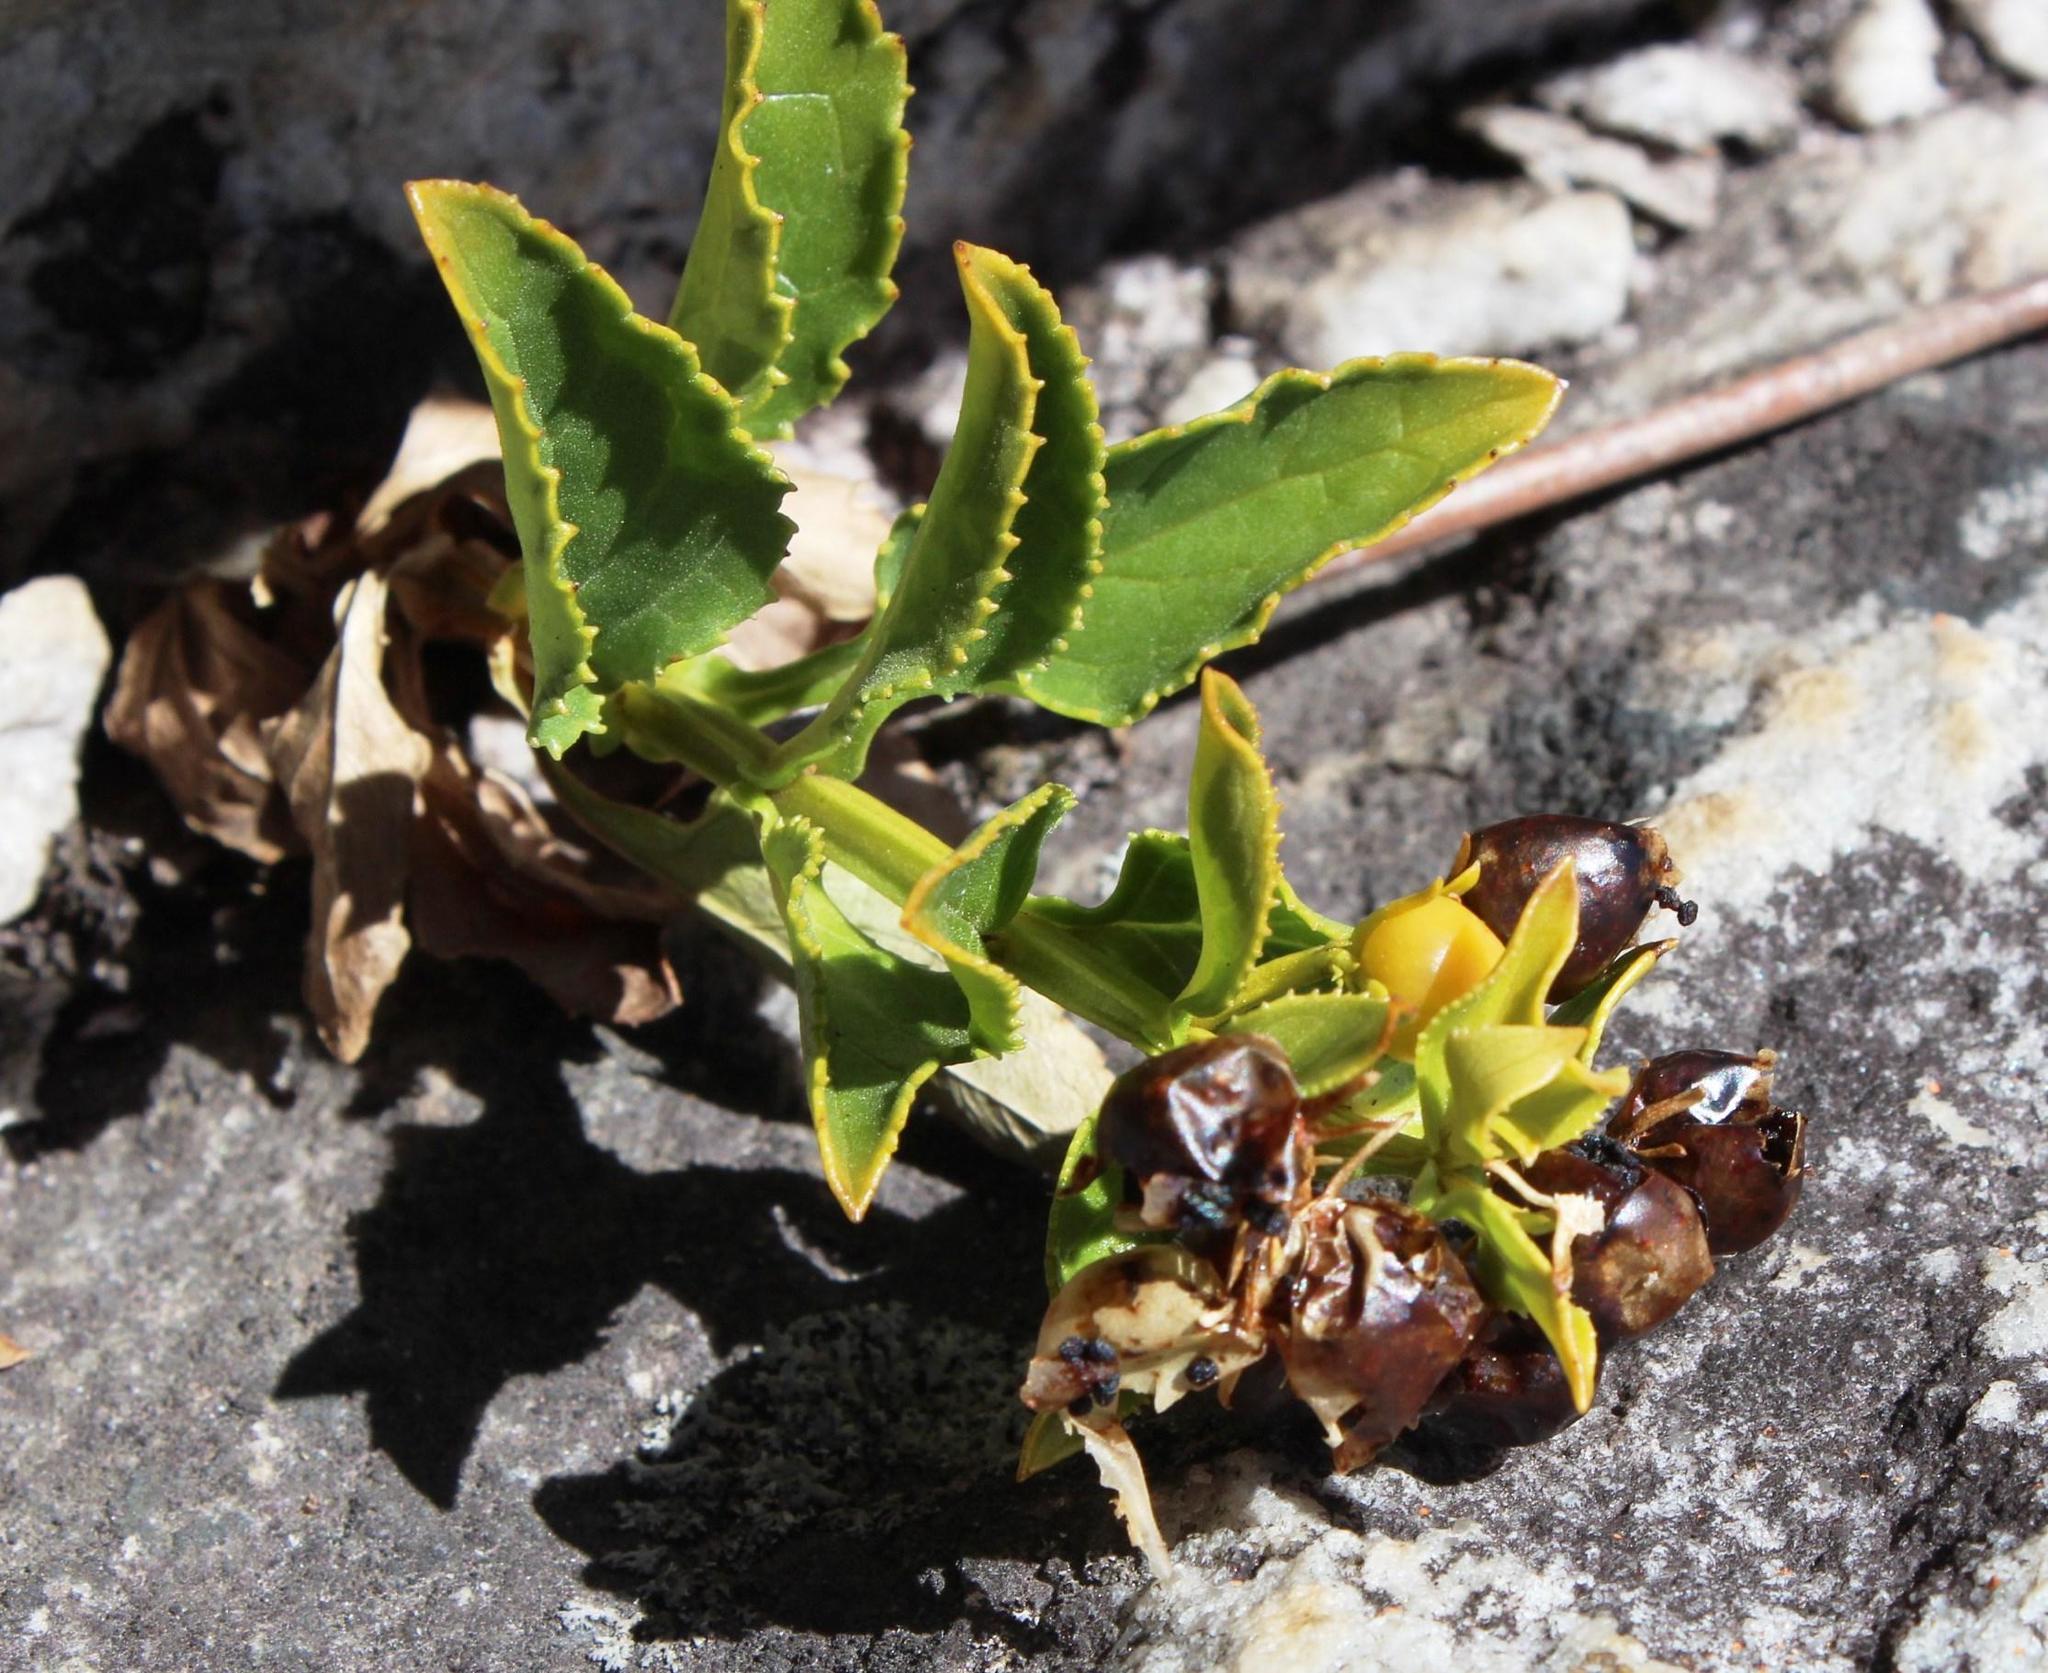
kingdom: Plantae
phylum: Tracheophyta
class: Magnoliopsida
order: Lamiales
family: Scrophulariaceae
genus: Teedia
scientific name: Teedia lucida
